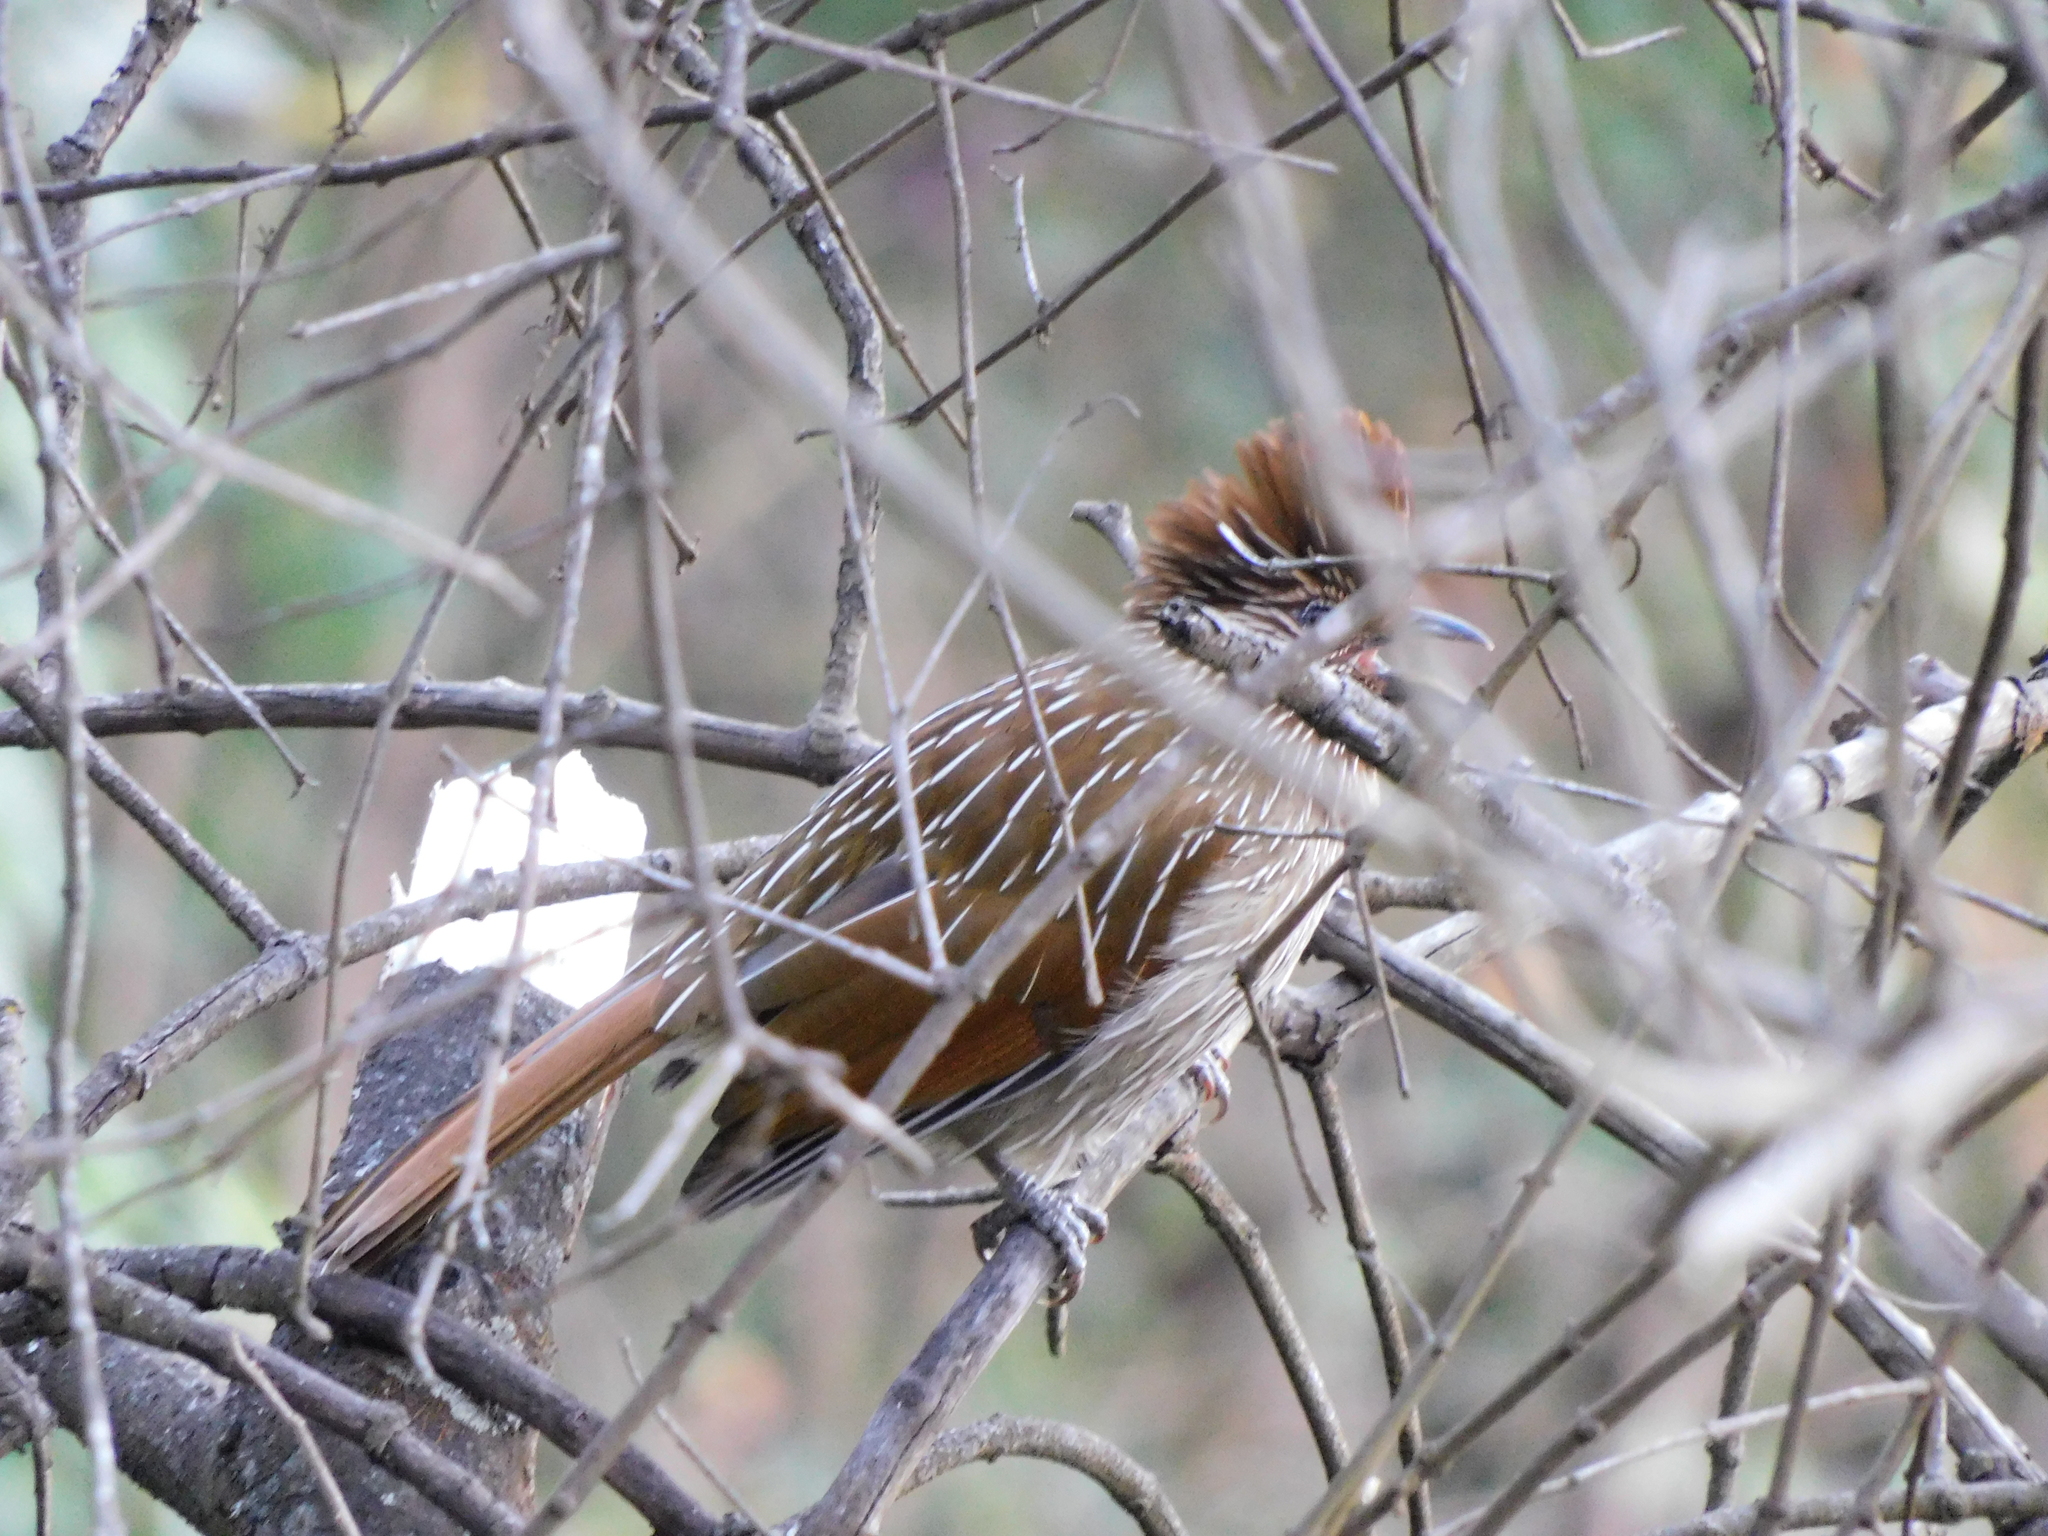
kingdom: Animalia
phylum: Chordata
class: Aves
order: Passeriformes
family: Leiothrichidae
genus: Garrulax
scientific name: Garrulax striatus
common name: Striated laughingthrush
